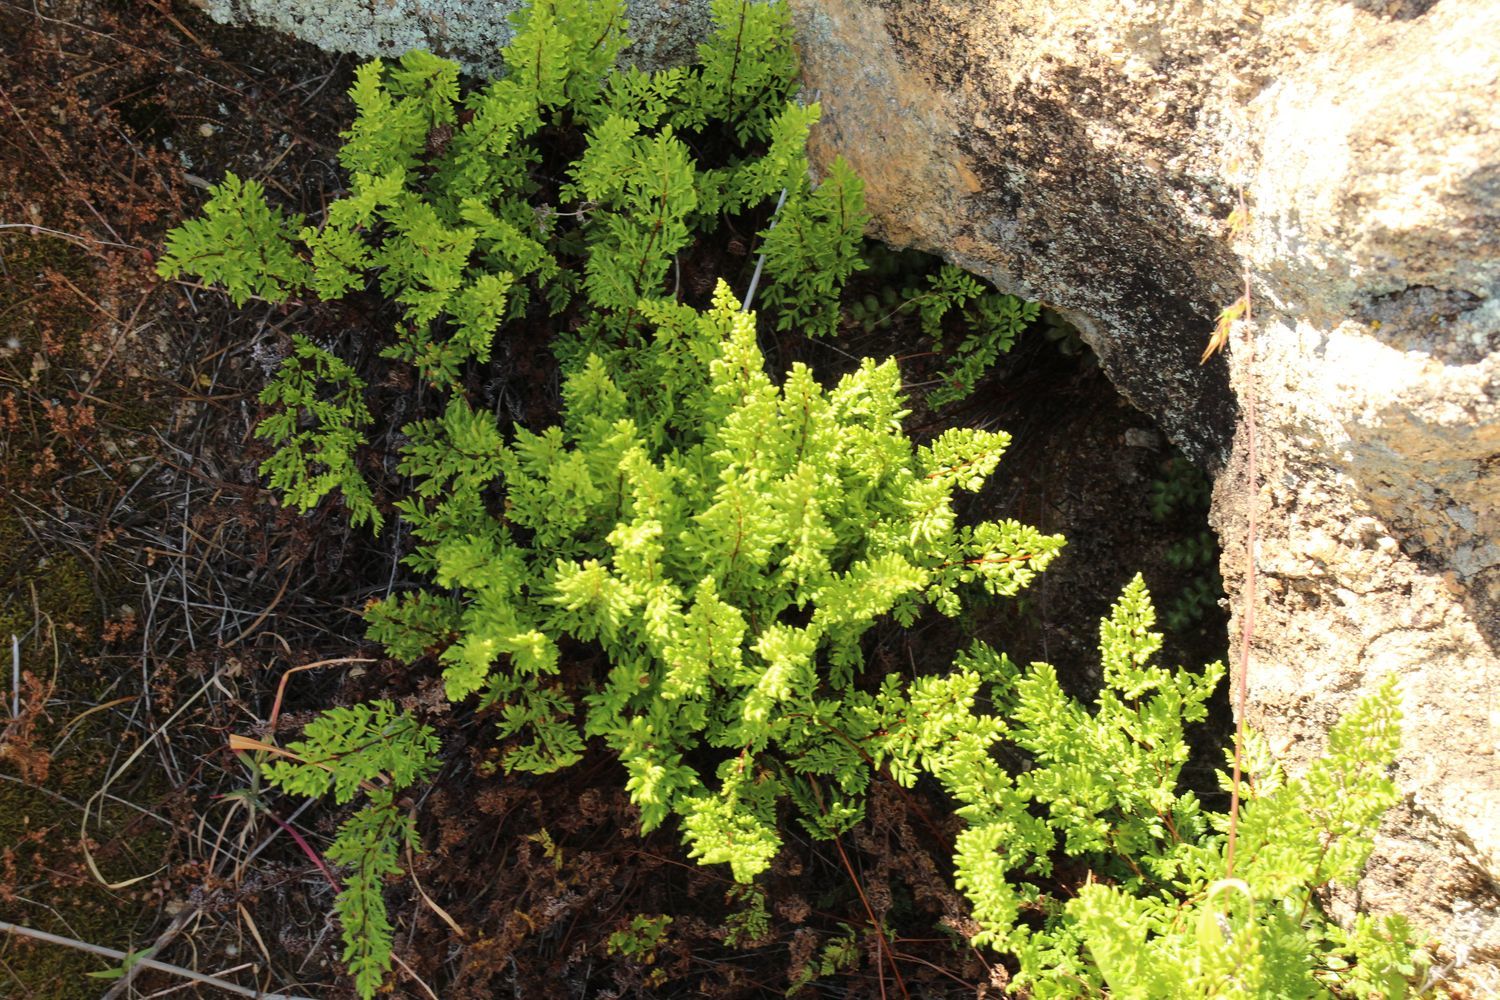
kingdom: Plantae
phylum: Tracheophyta
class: Polypodiopsida
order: Polypodiales
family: Pteridaceae
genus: Cheilanthes
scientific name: Cheilanthes austrotenuifolia
